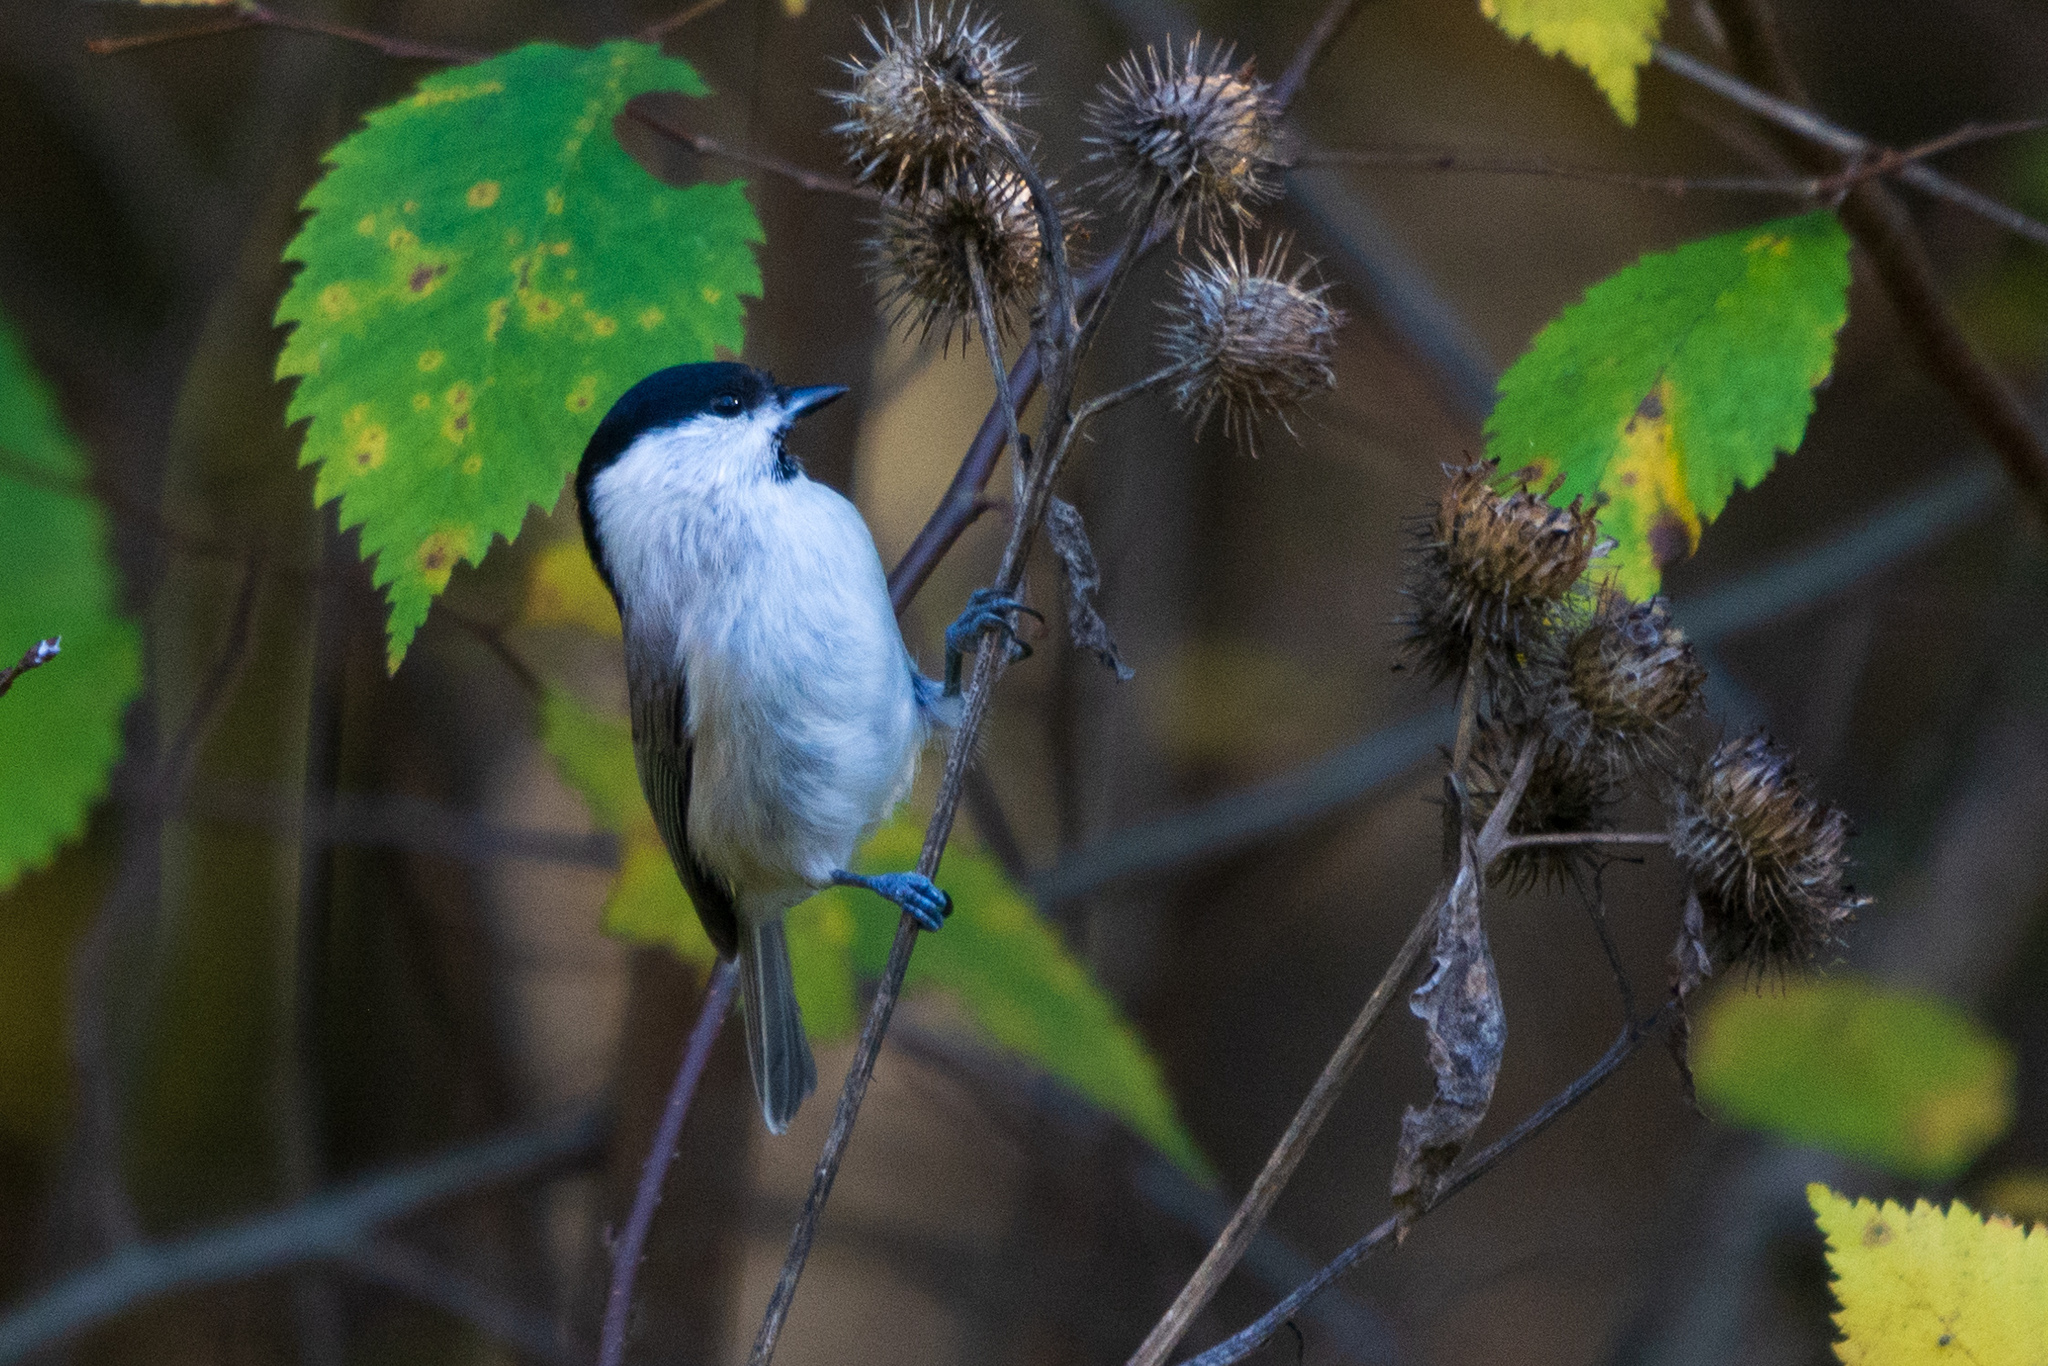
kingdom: Animalia
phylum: Chordata
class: Aves
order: Passeriformes
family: Paridae
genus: Poecile
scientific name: Poecile palustris
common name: Marsh tit
